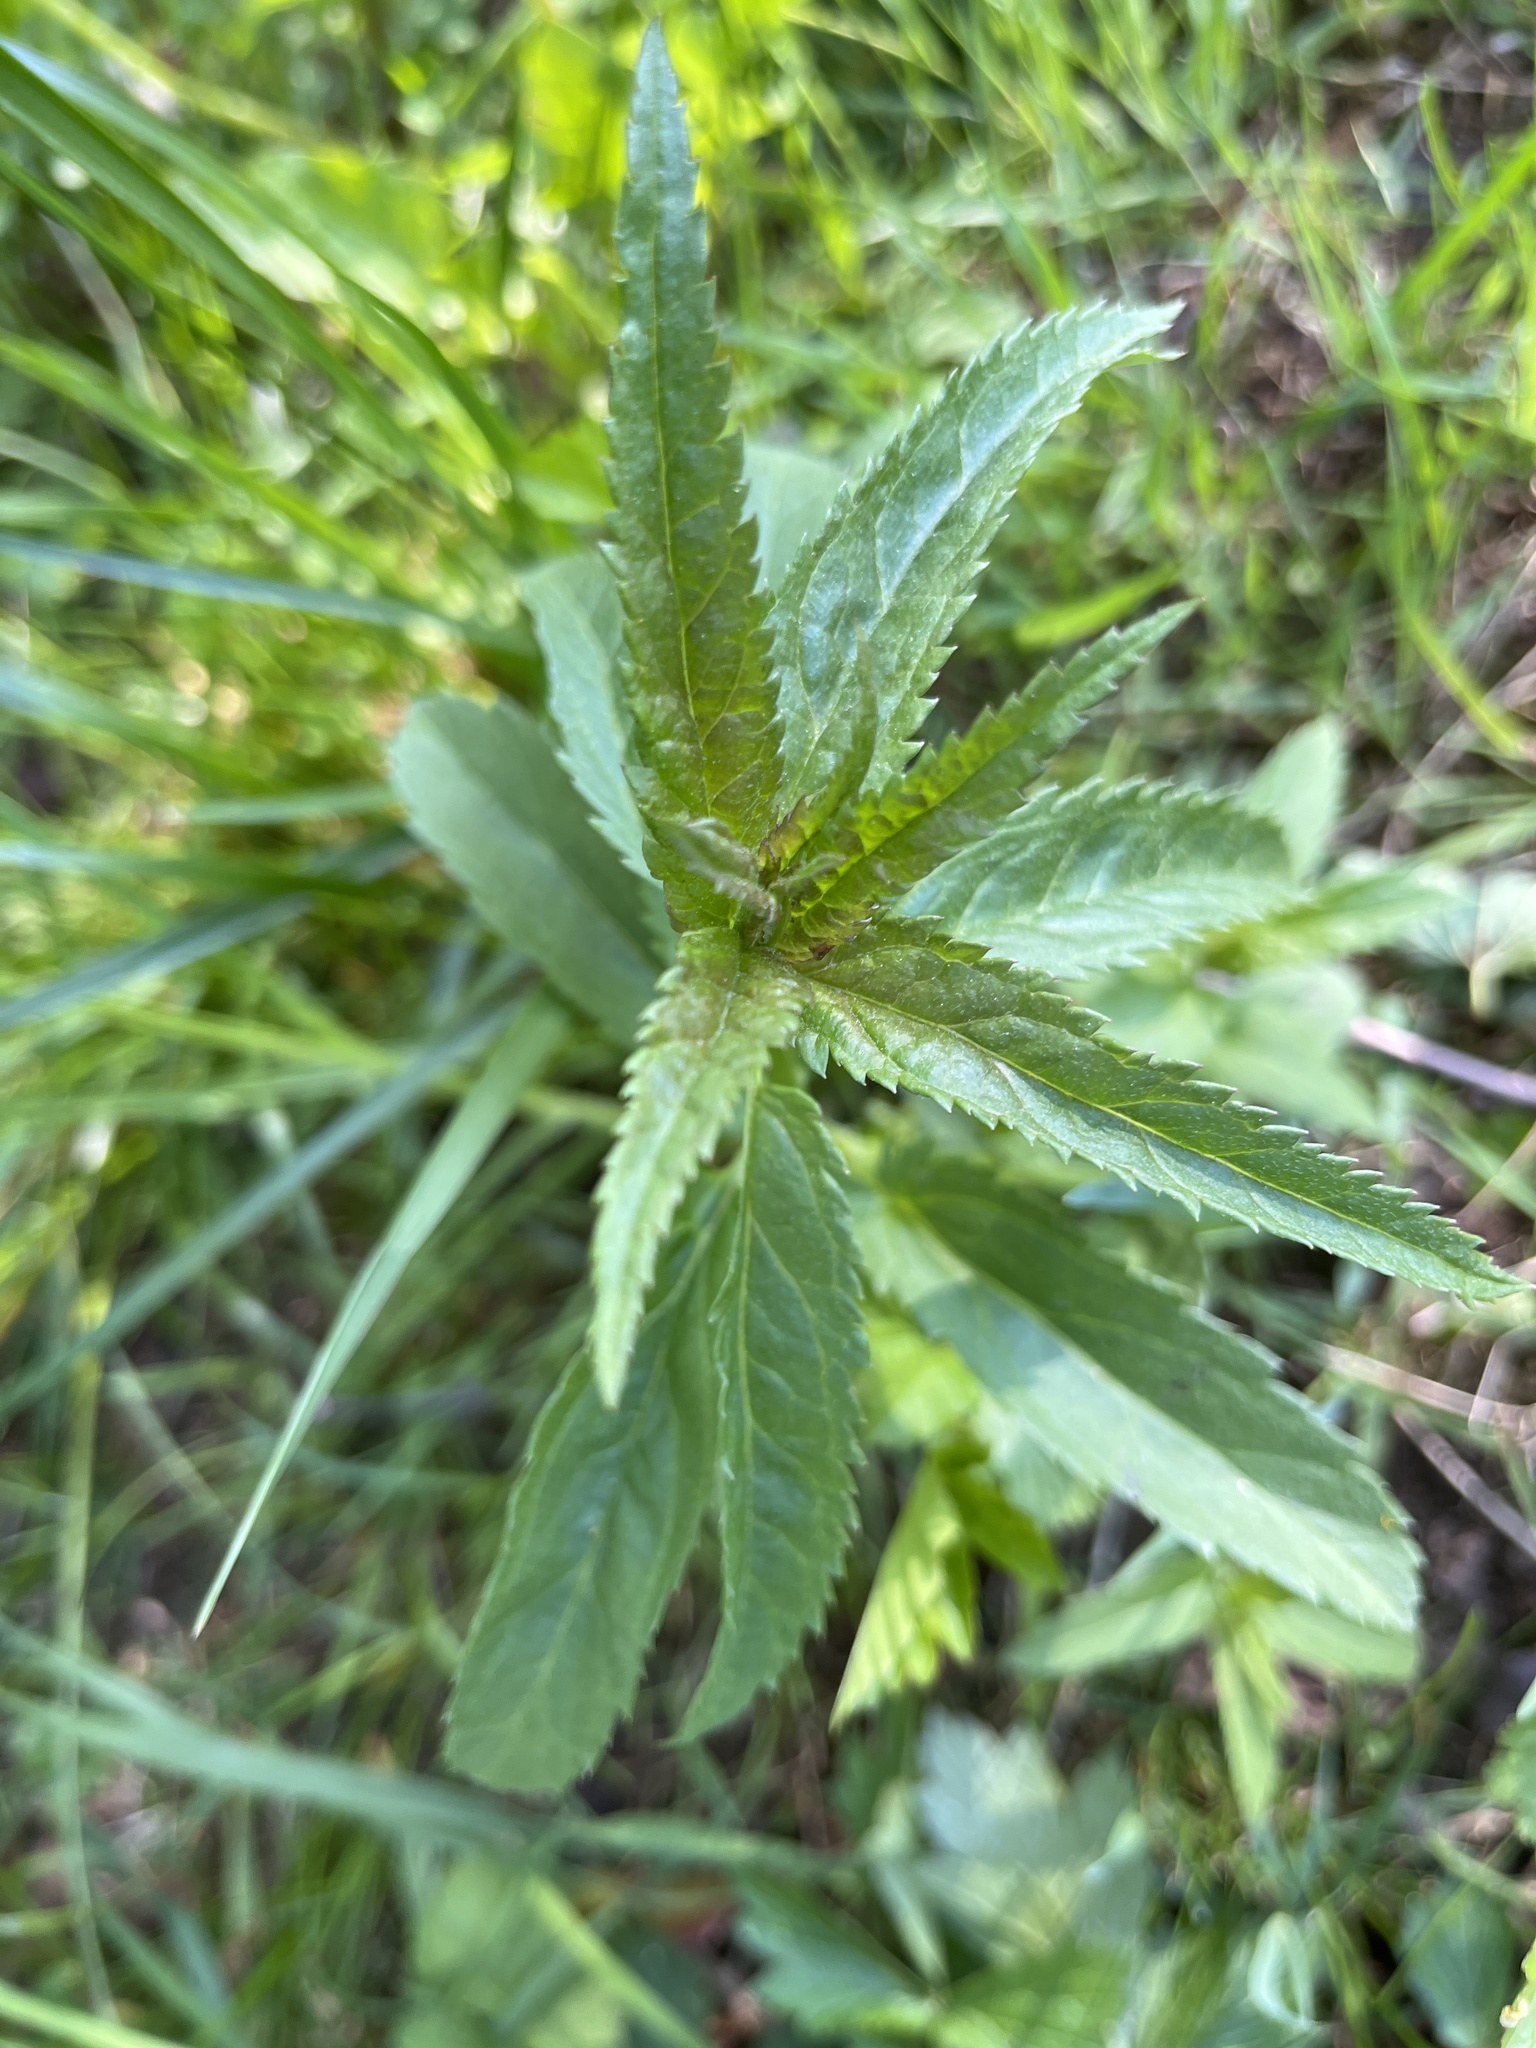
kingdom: Plantae
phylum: Tracheophyta
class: Magnoliopsida
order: Lamiales
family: Plantaginaceae
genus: Veronica
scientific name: Veronica longifolia
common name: Garden speedwell
